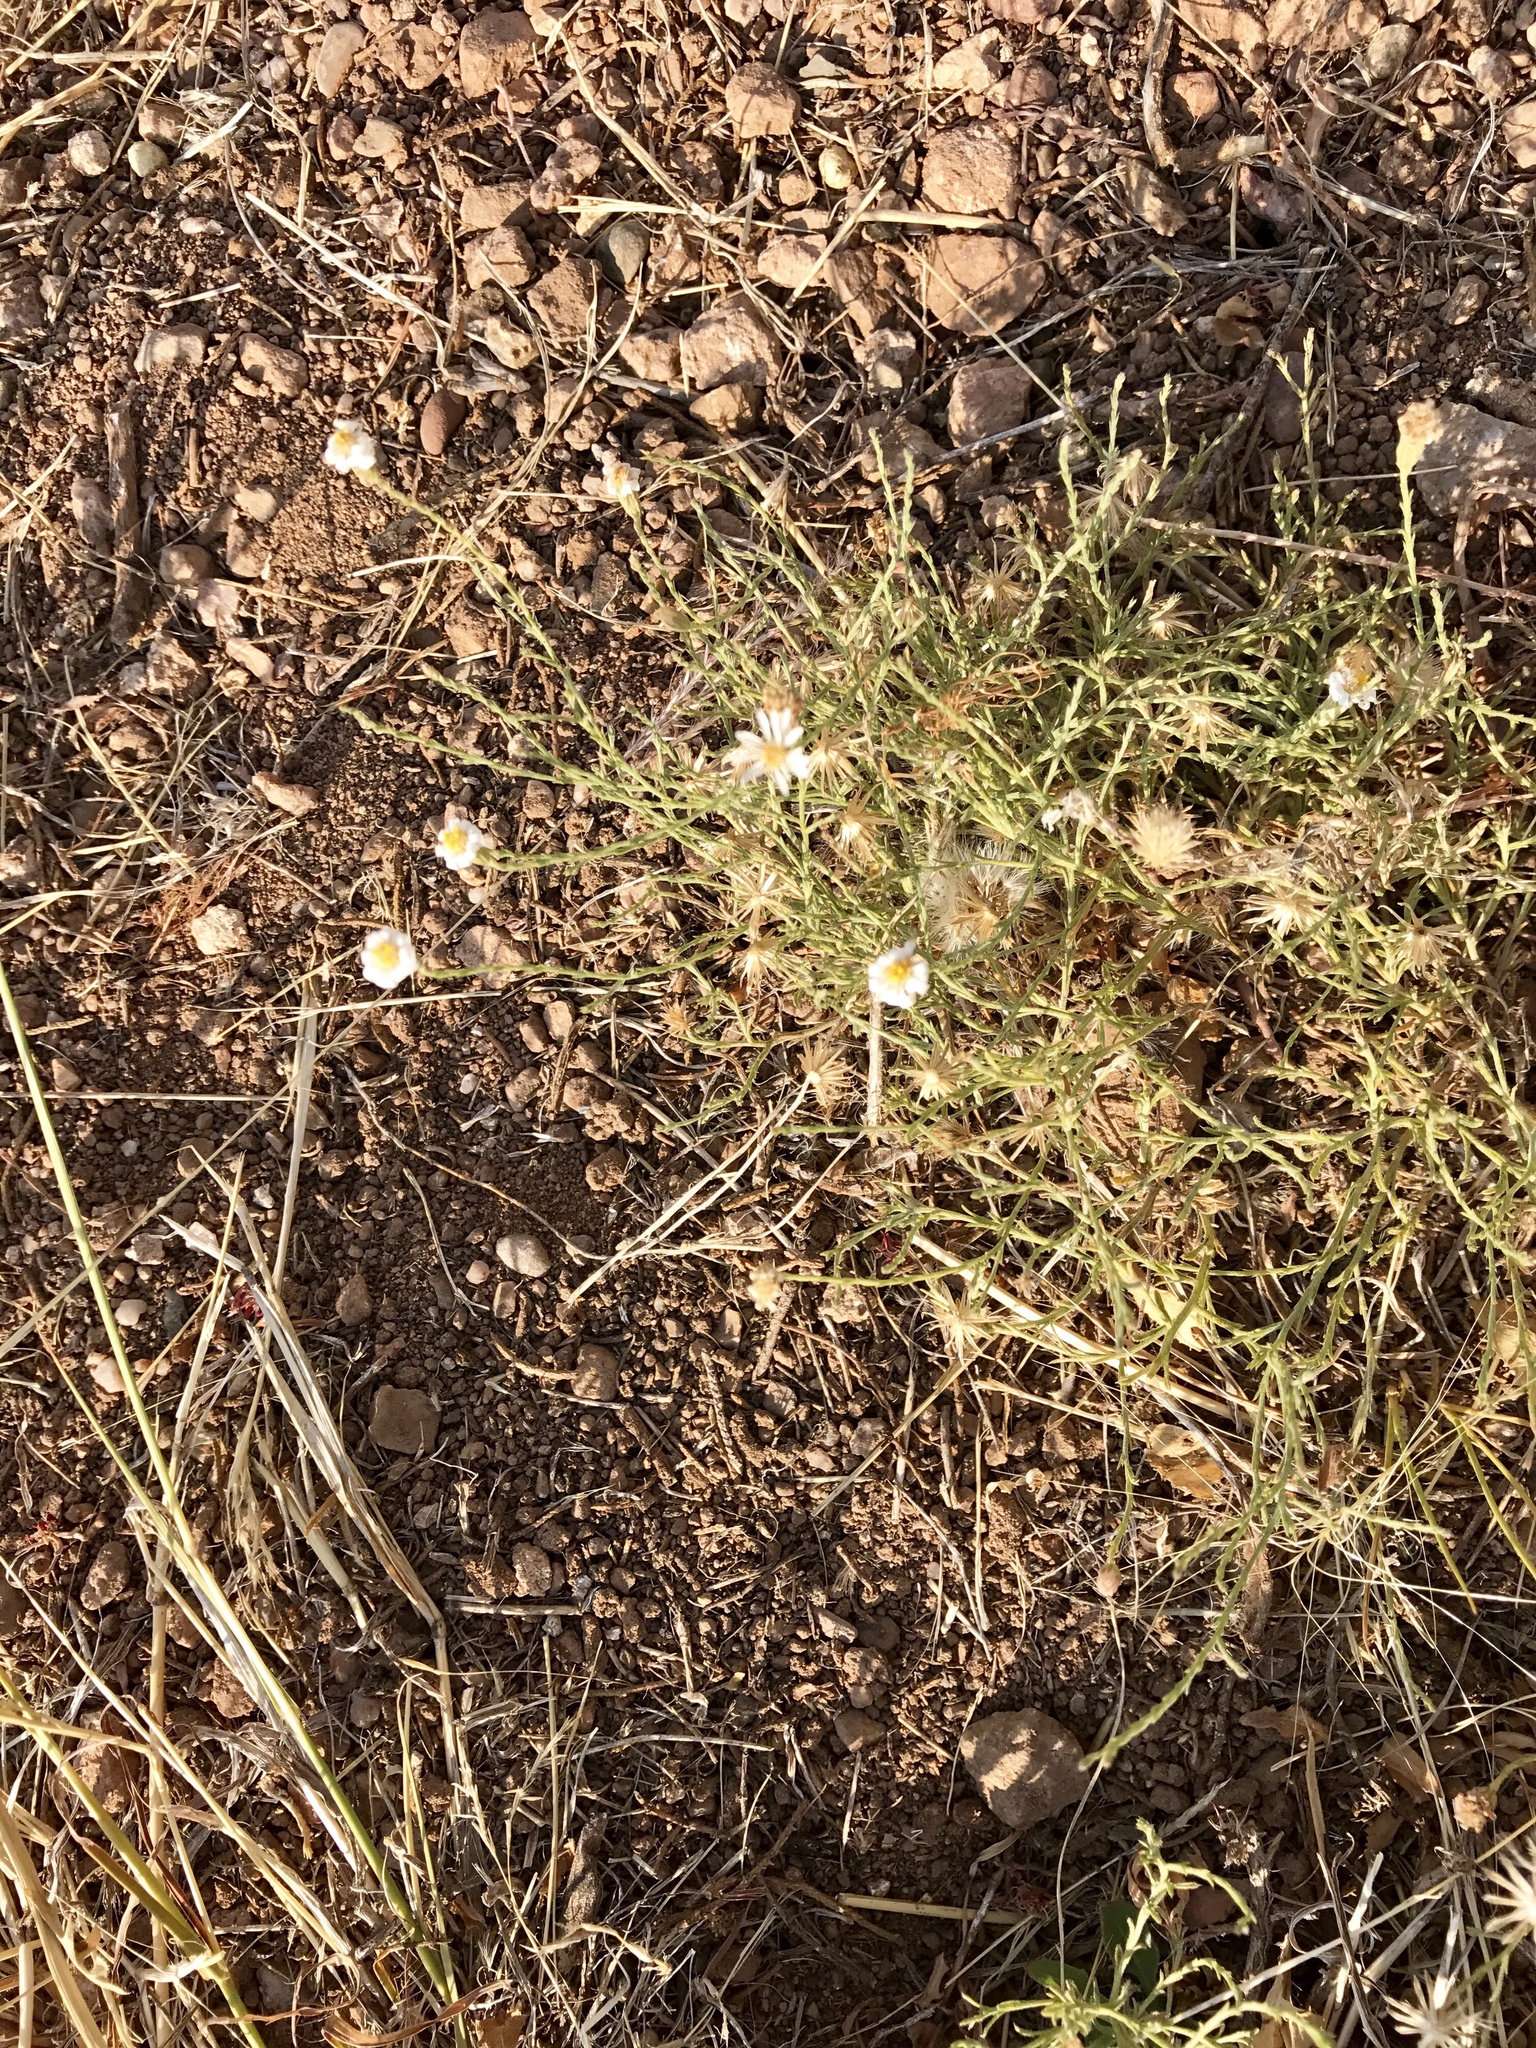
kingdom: Plantae
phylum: Tracheophyta
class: Magnoliopsida
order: Asterales
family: Asteraceae
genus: Chaetopappa
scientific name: Chaetopappa ericoides
